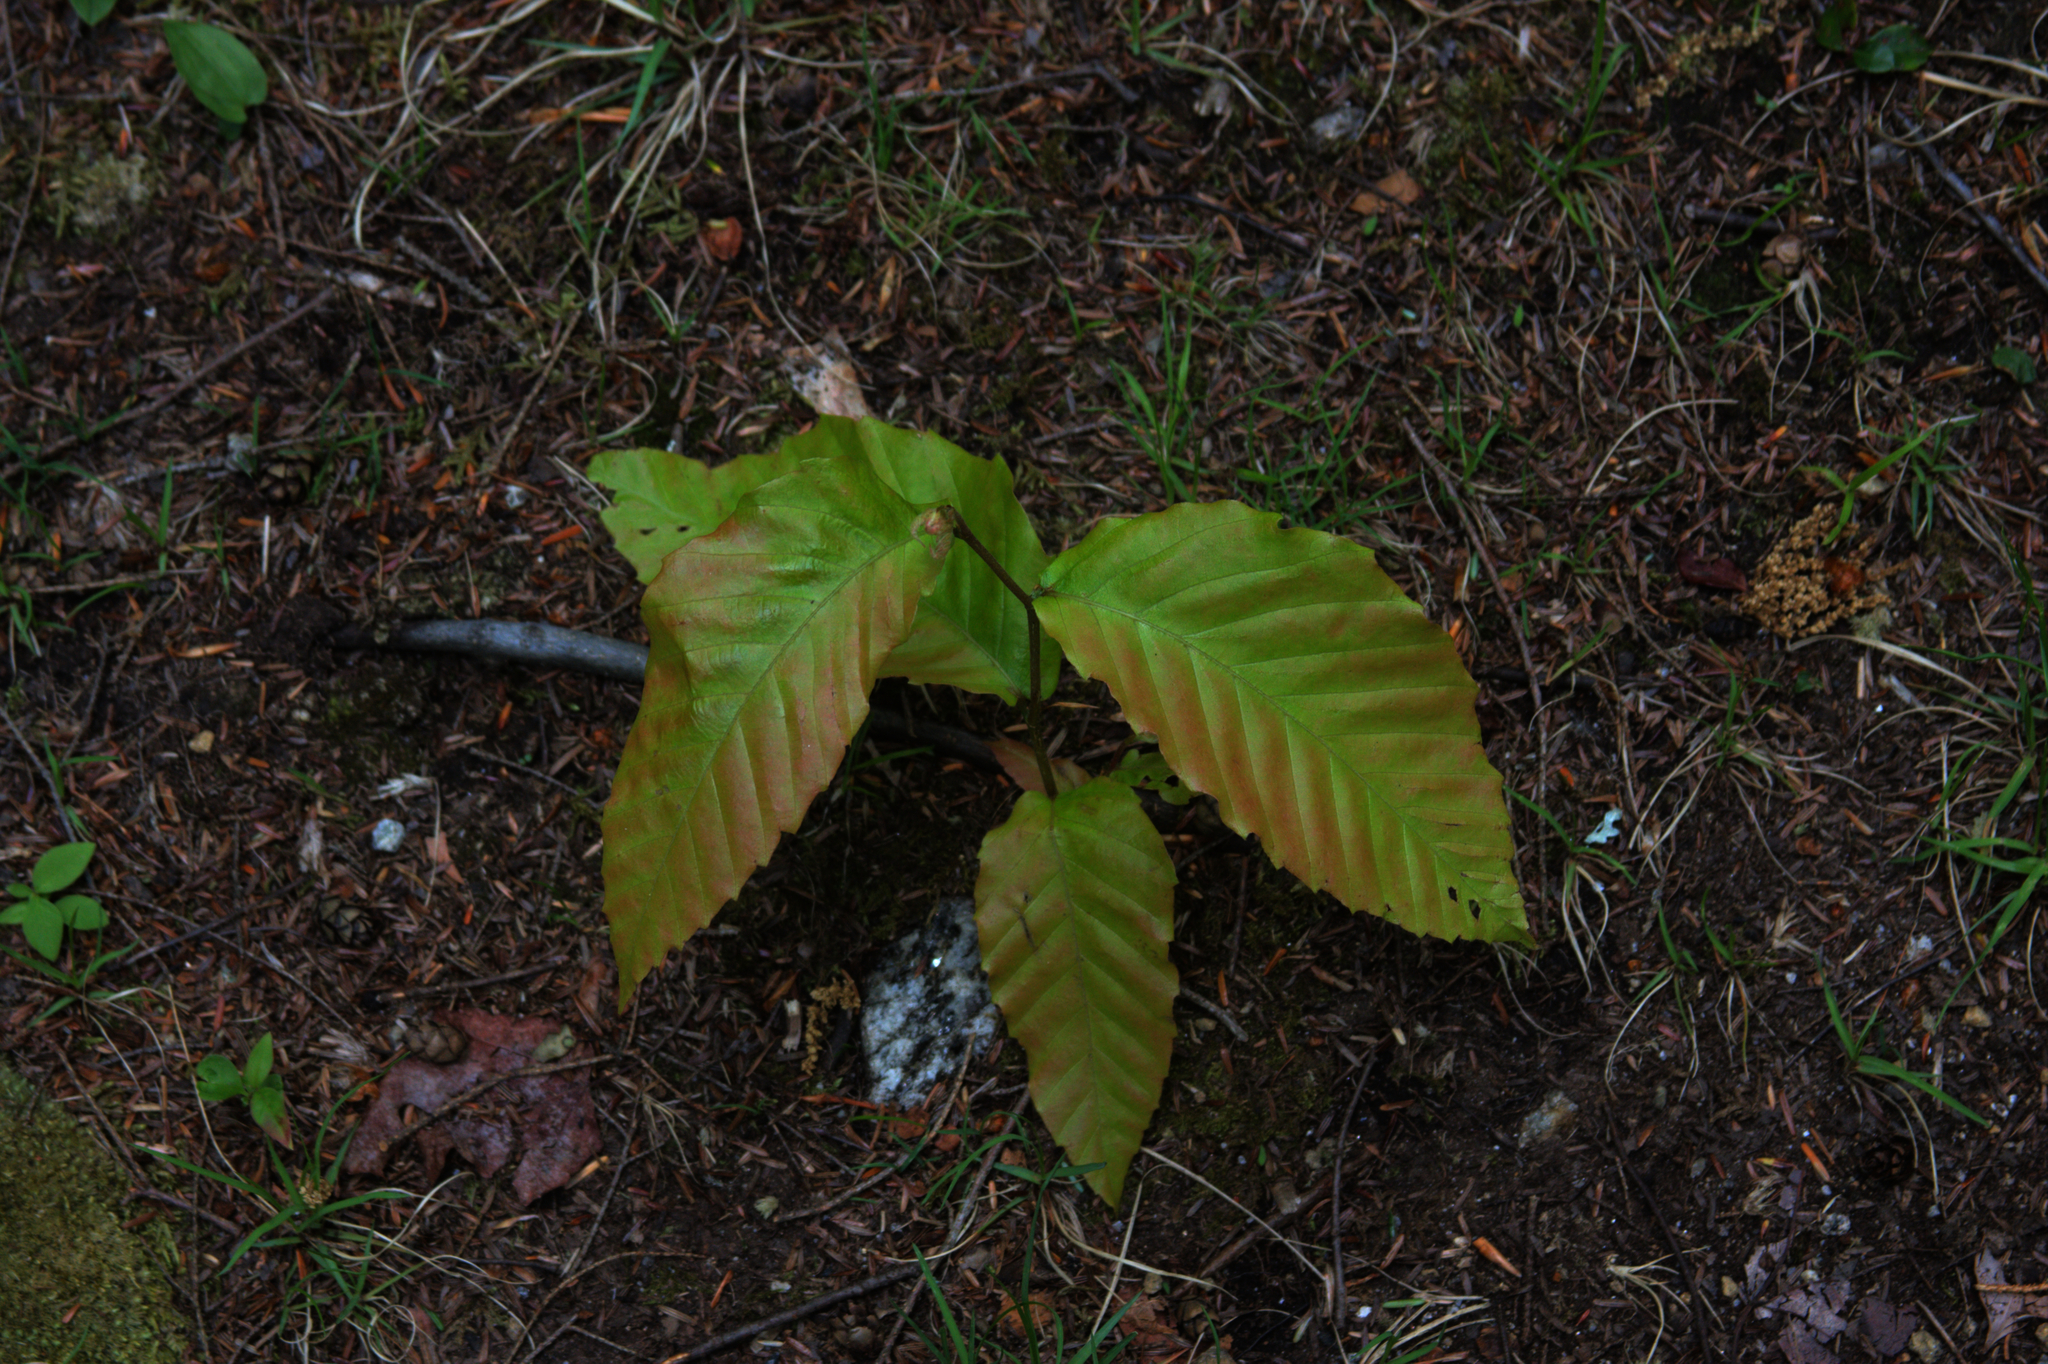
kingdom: Plantae
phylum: Tracheophyta
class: Magnoliopsida
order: Fagales
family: Fagaceae
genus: Fagus
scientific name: Fagus grandifolia
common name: American beech
